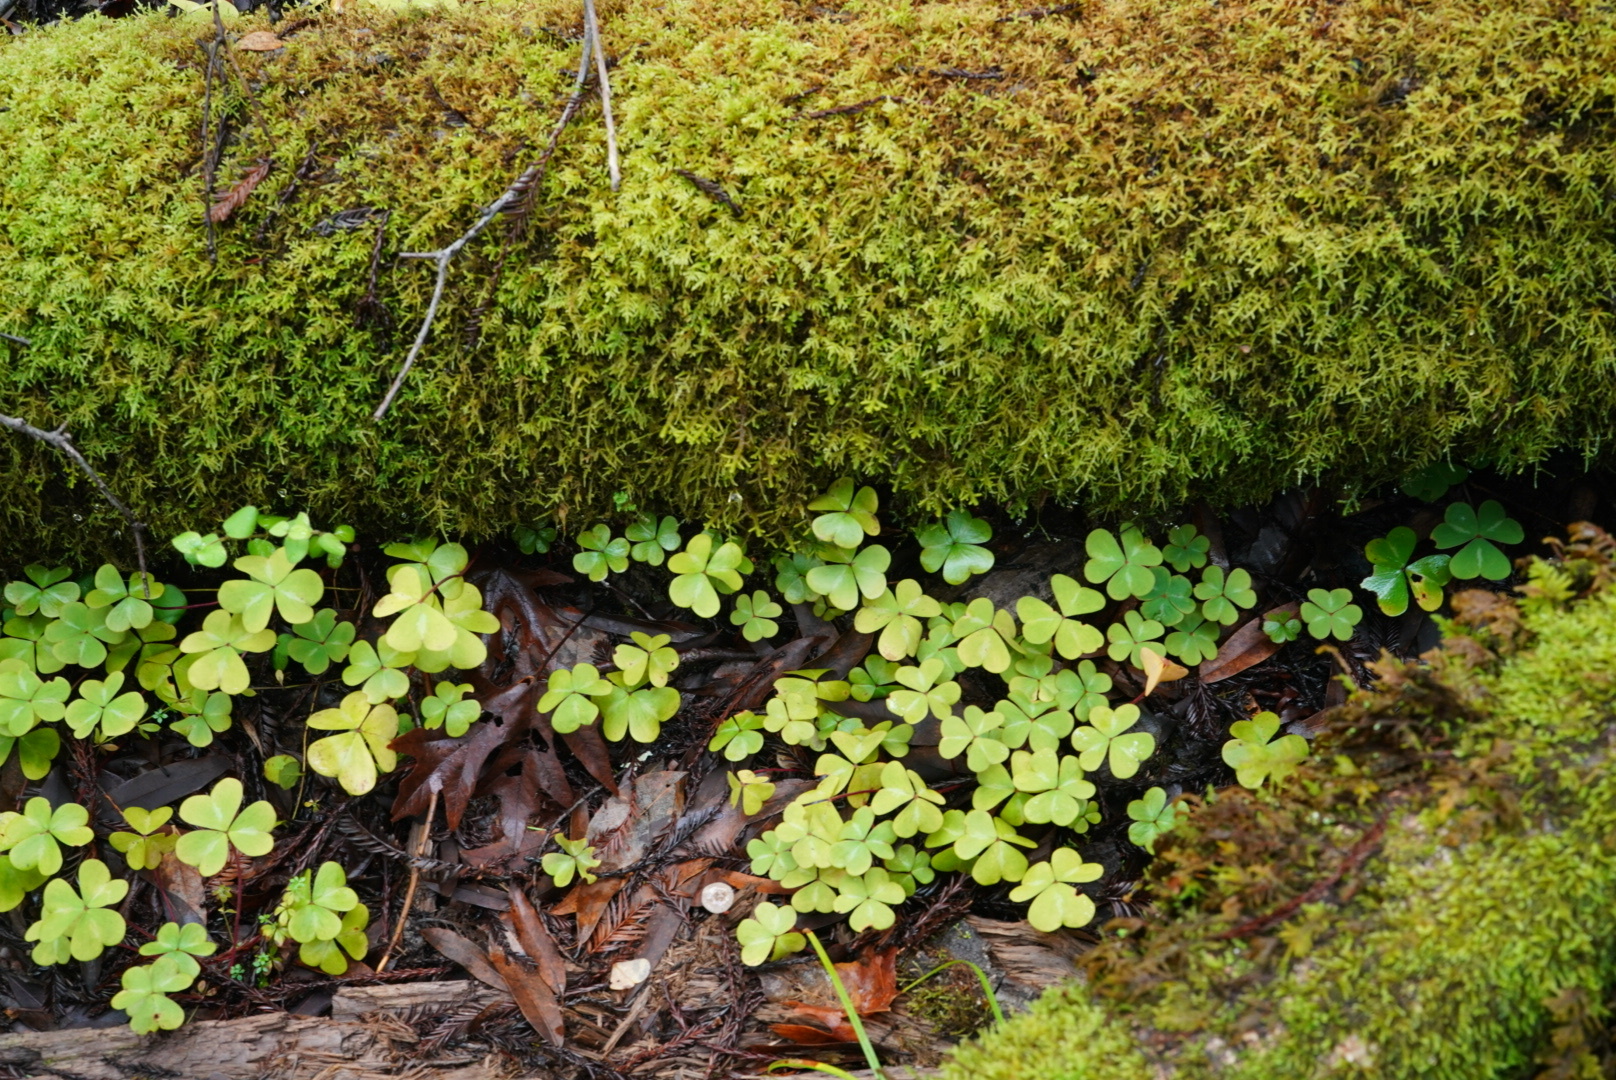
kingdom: Plantae
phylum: Tracheophyta
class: Magnoliopsida
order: Oxalidales
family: Oxalidaceae
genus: Oxalis
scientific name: Oxalis oregana
